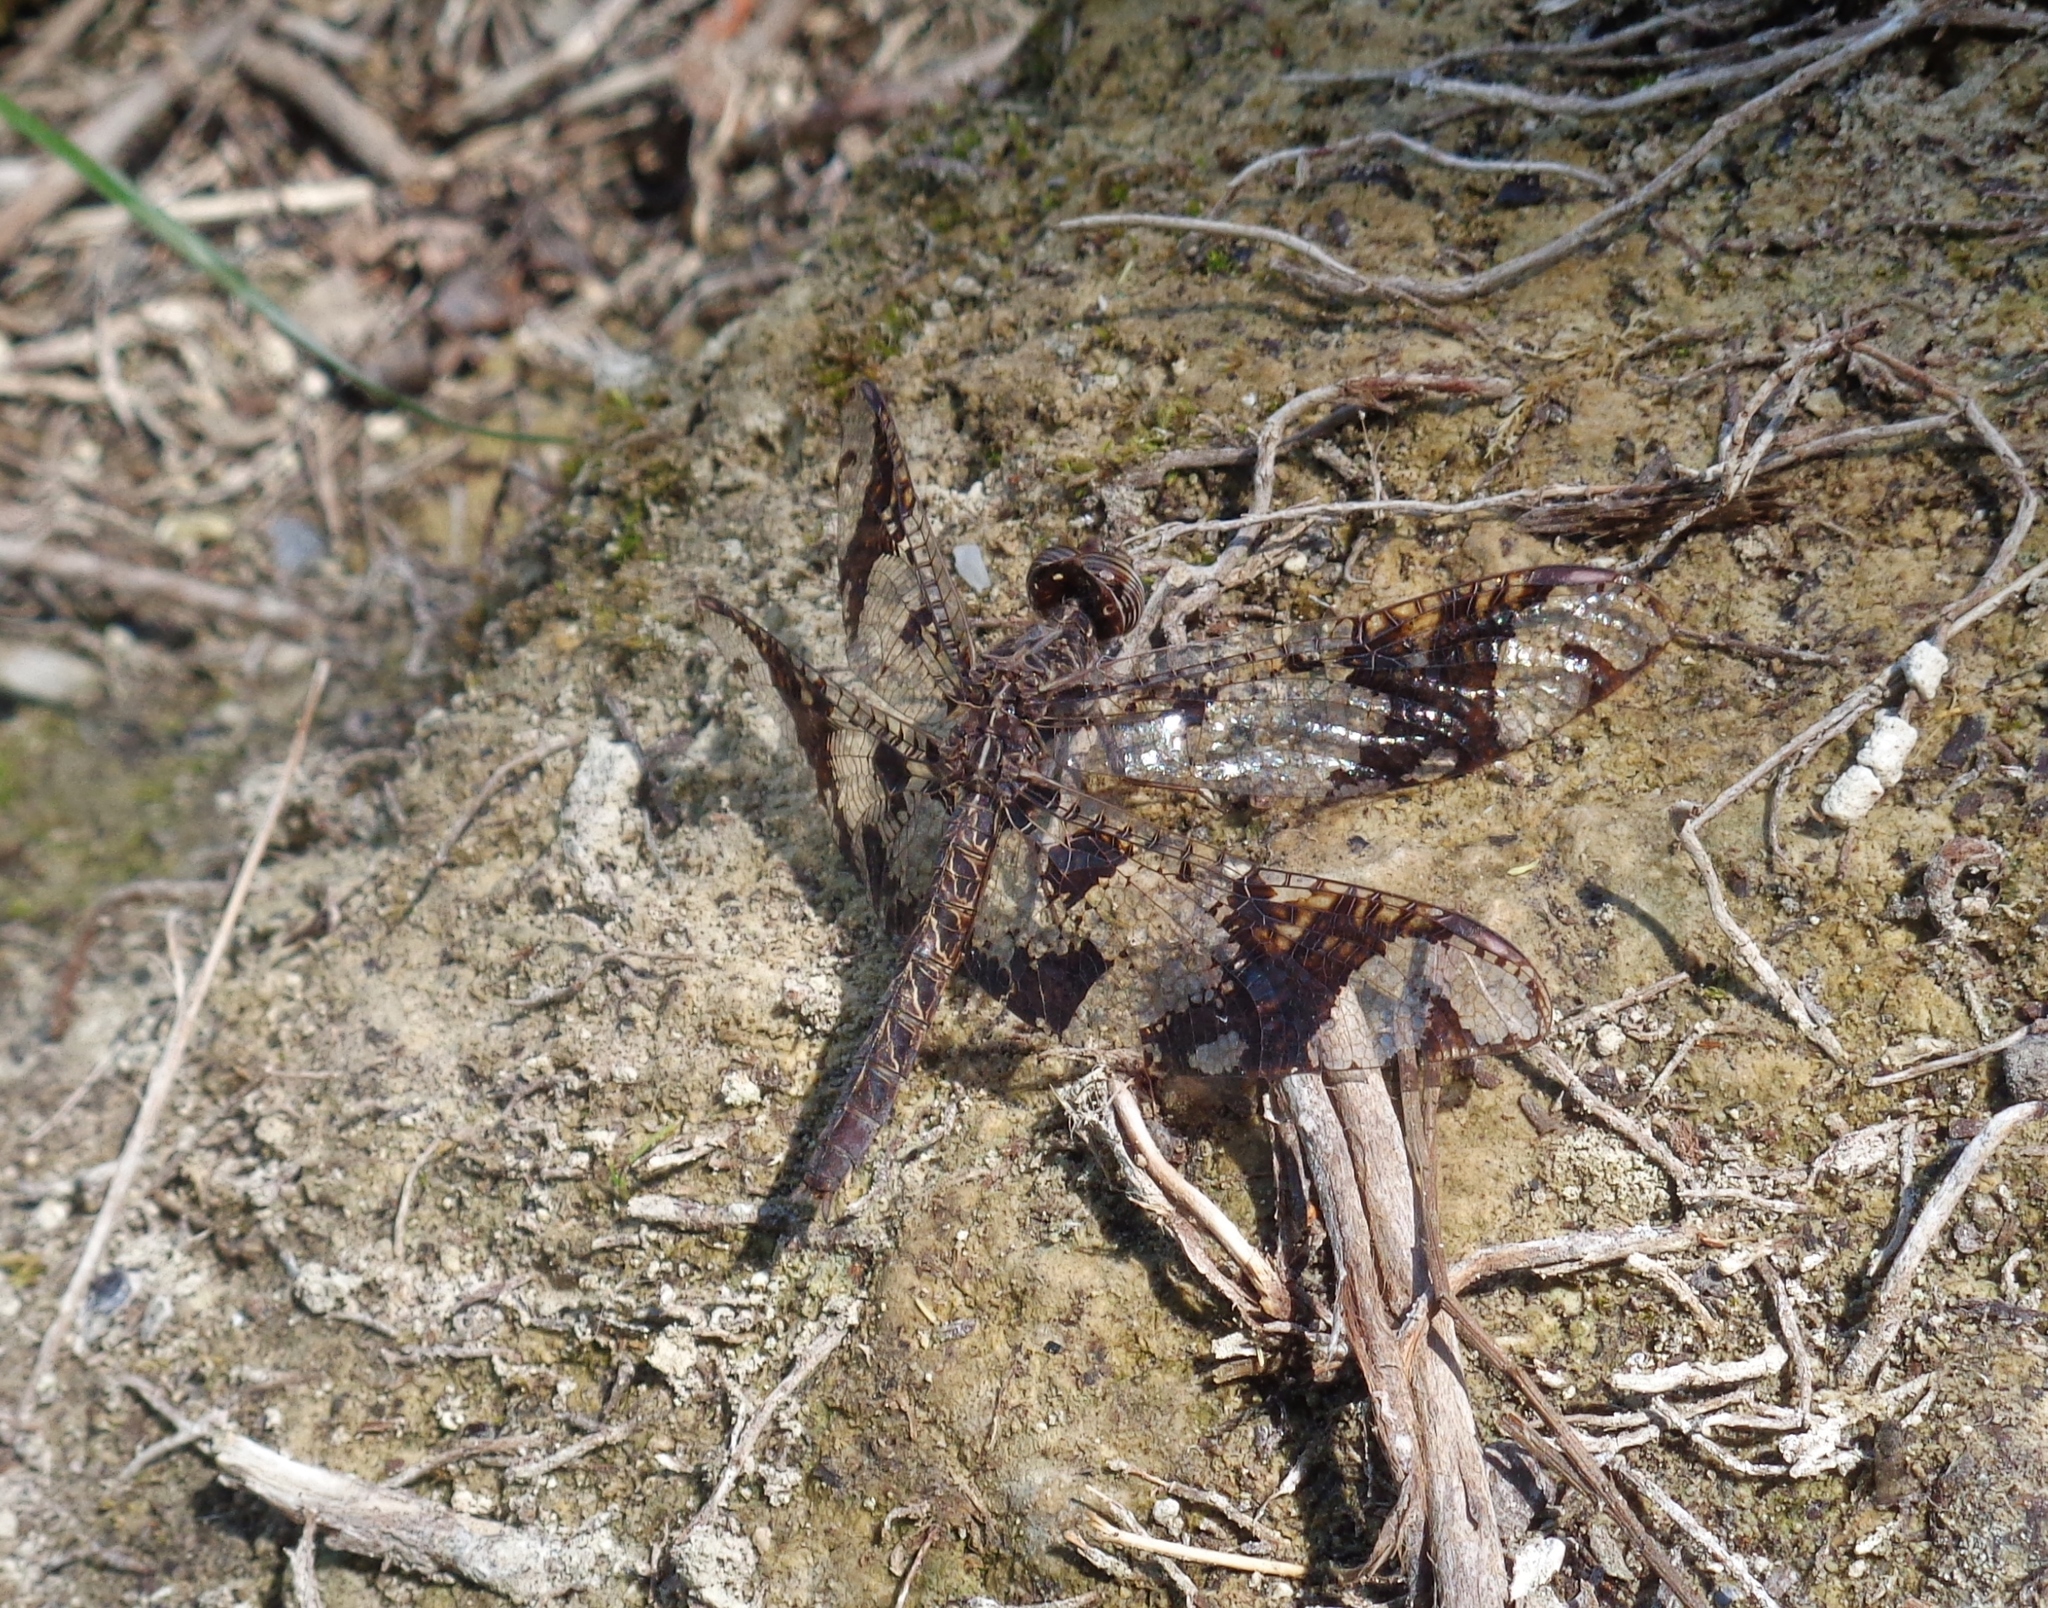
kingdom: Animalia
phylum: Arthropoda
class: Insecta
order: Odonata
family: Libellulidae
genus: Pseudoleon
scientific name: Pseudoleon superbus
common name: Filigree skimmer
